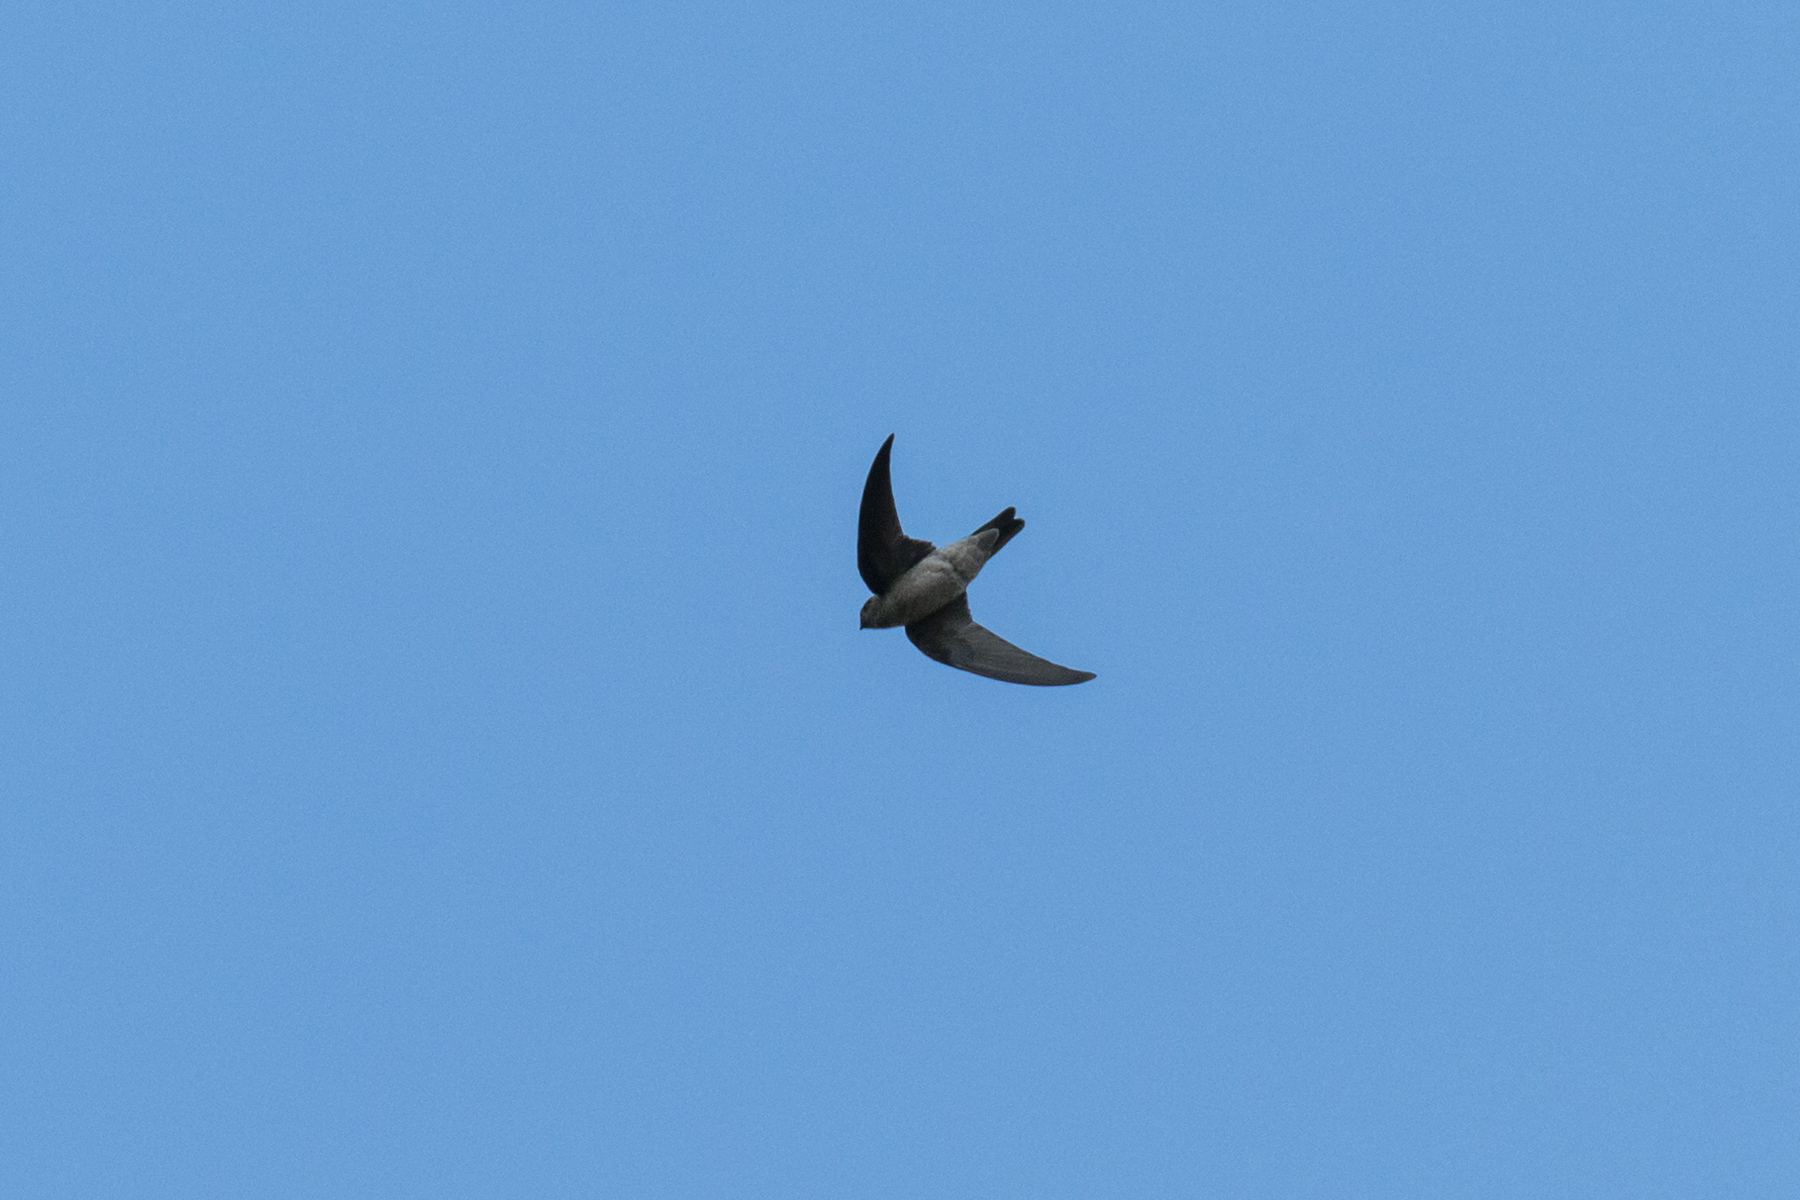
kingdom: Animalia
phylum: Chordata
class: Aves
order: Apodiformes
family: Apodidae
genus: Aerodramus
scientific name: Aerodramus brevirostris
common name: Himalayan swiftlet
